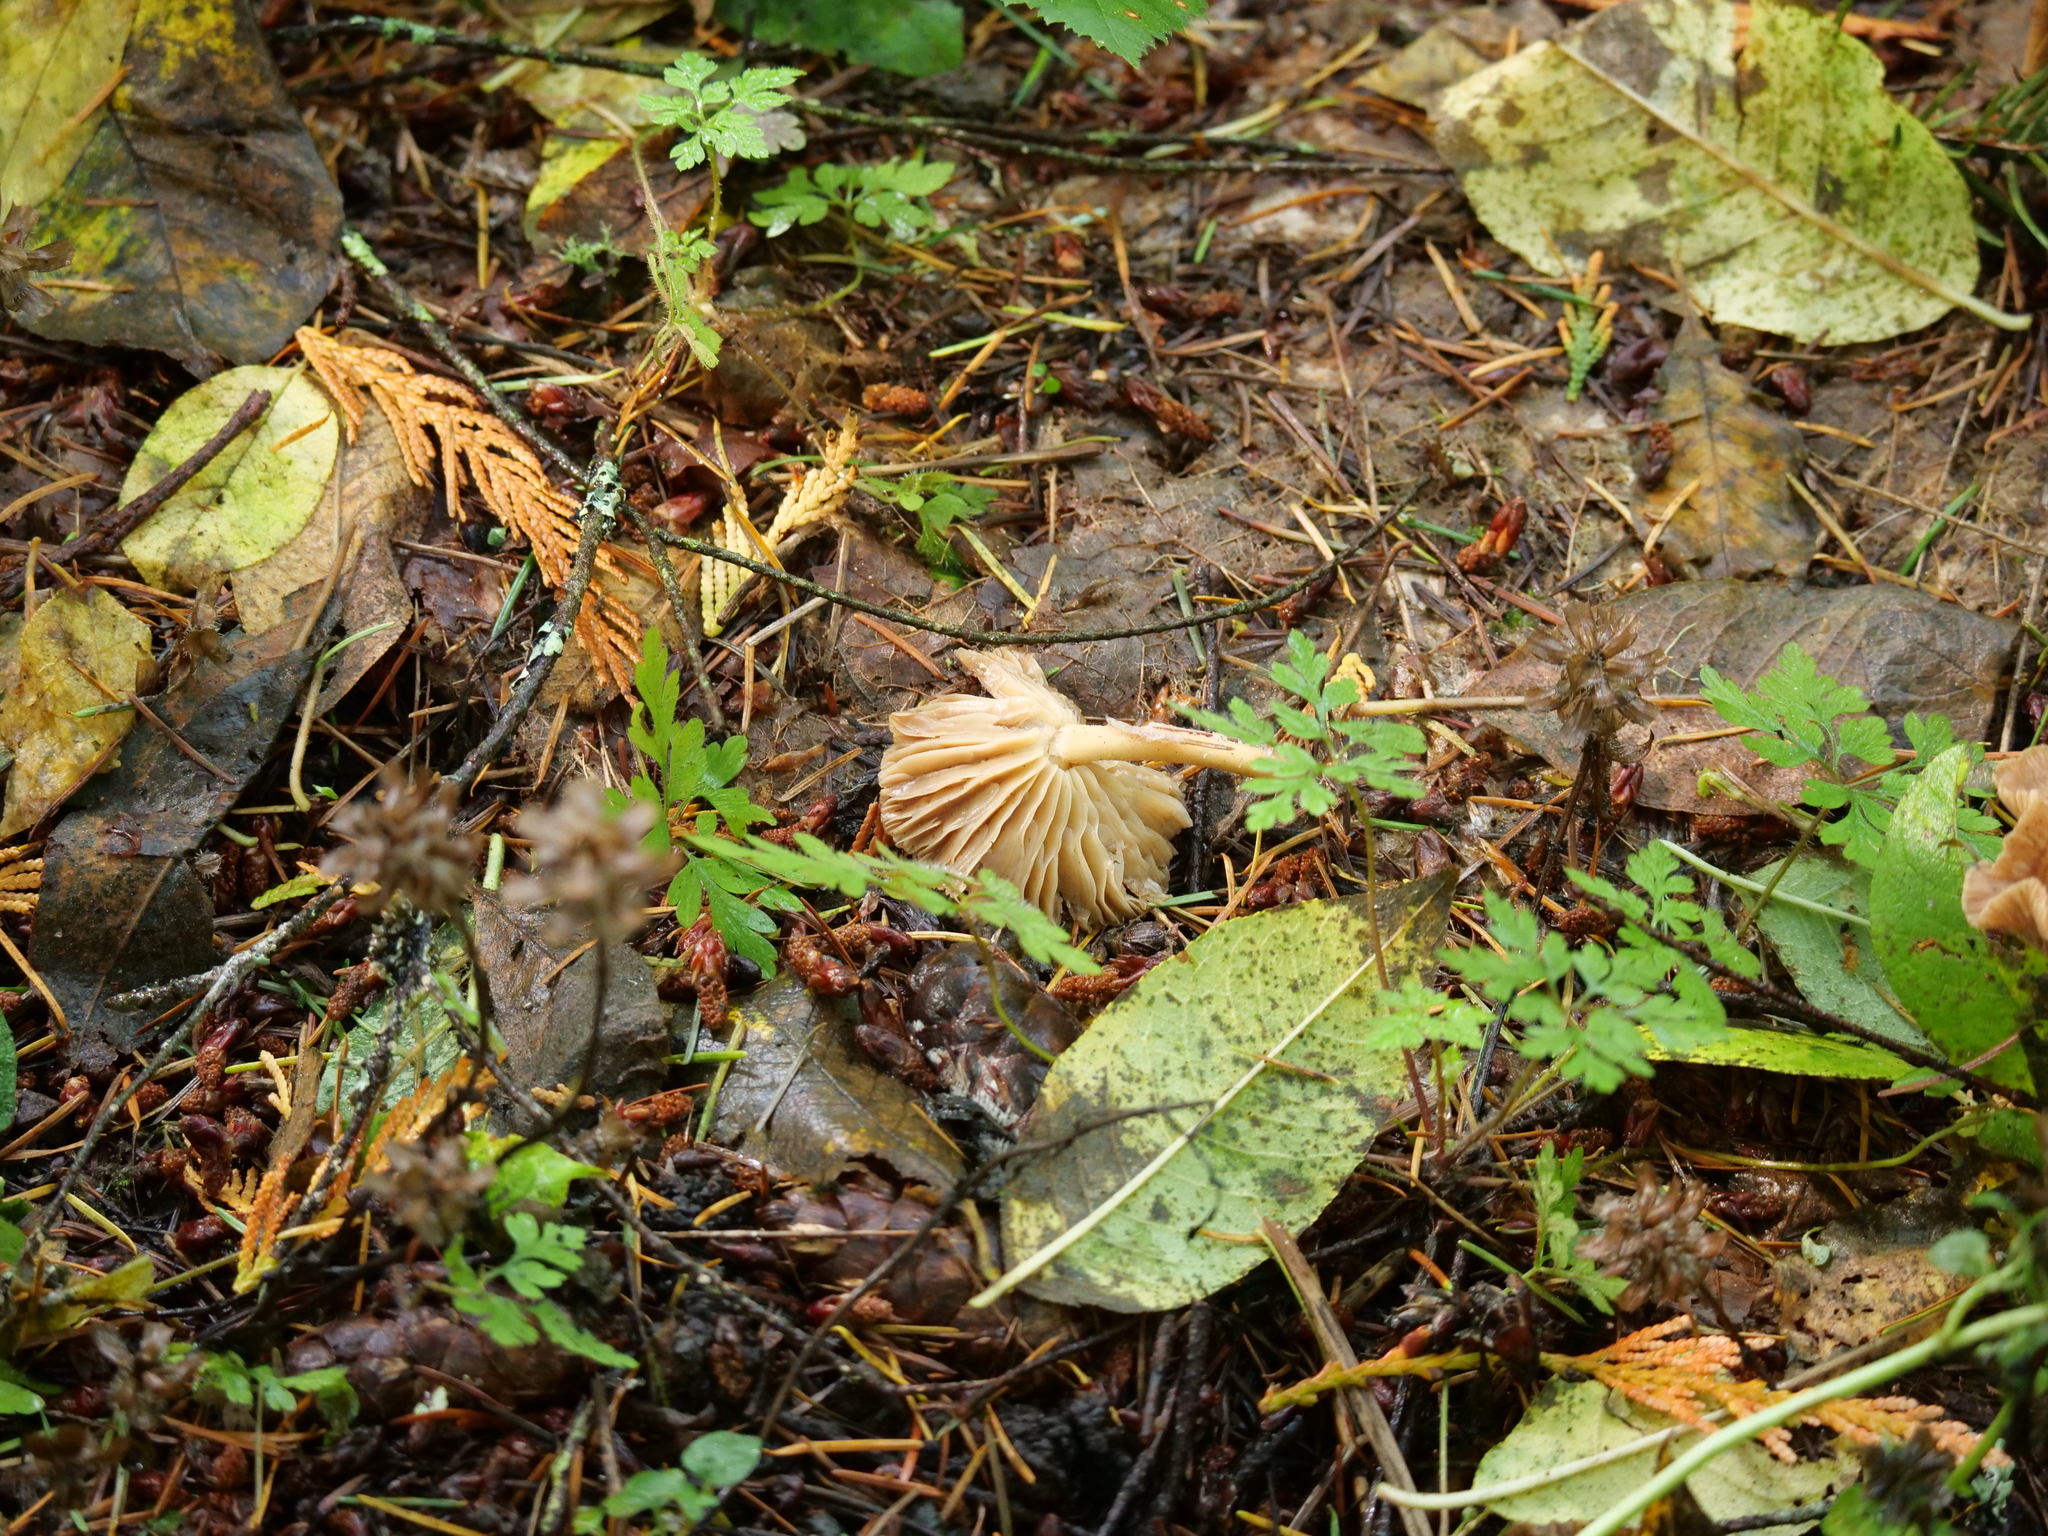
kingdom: Fungi
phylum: Basidiomycota
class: Agaricomycetes
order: Agaricales
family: Omphalotaceae
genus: Collybiopsis
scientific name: Collybiopsis peronata
